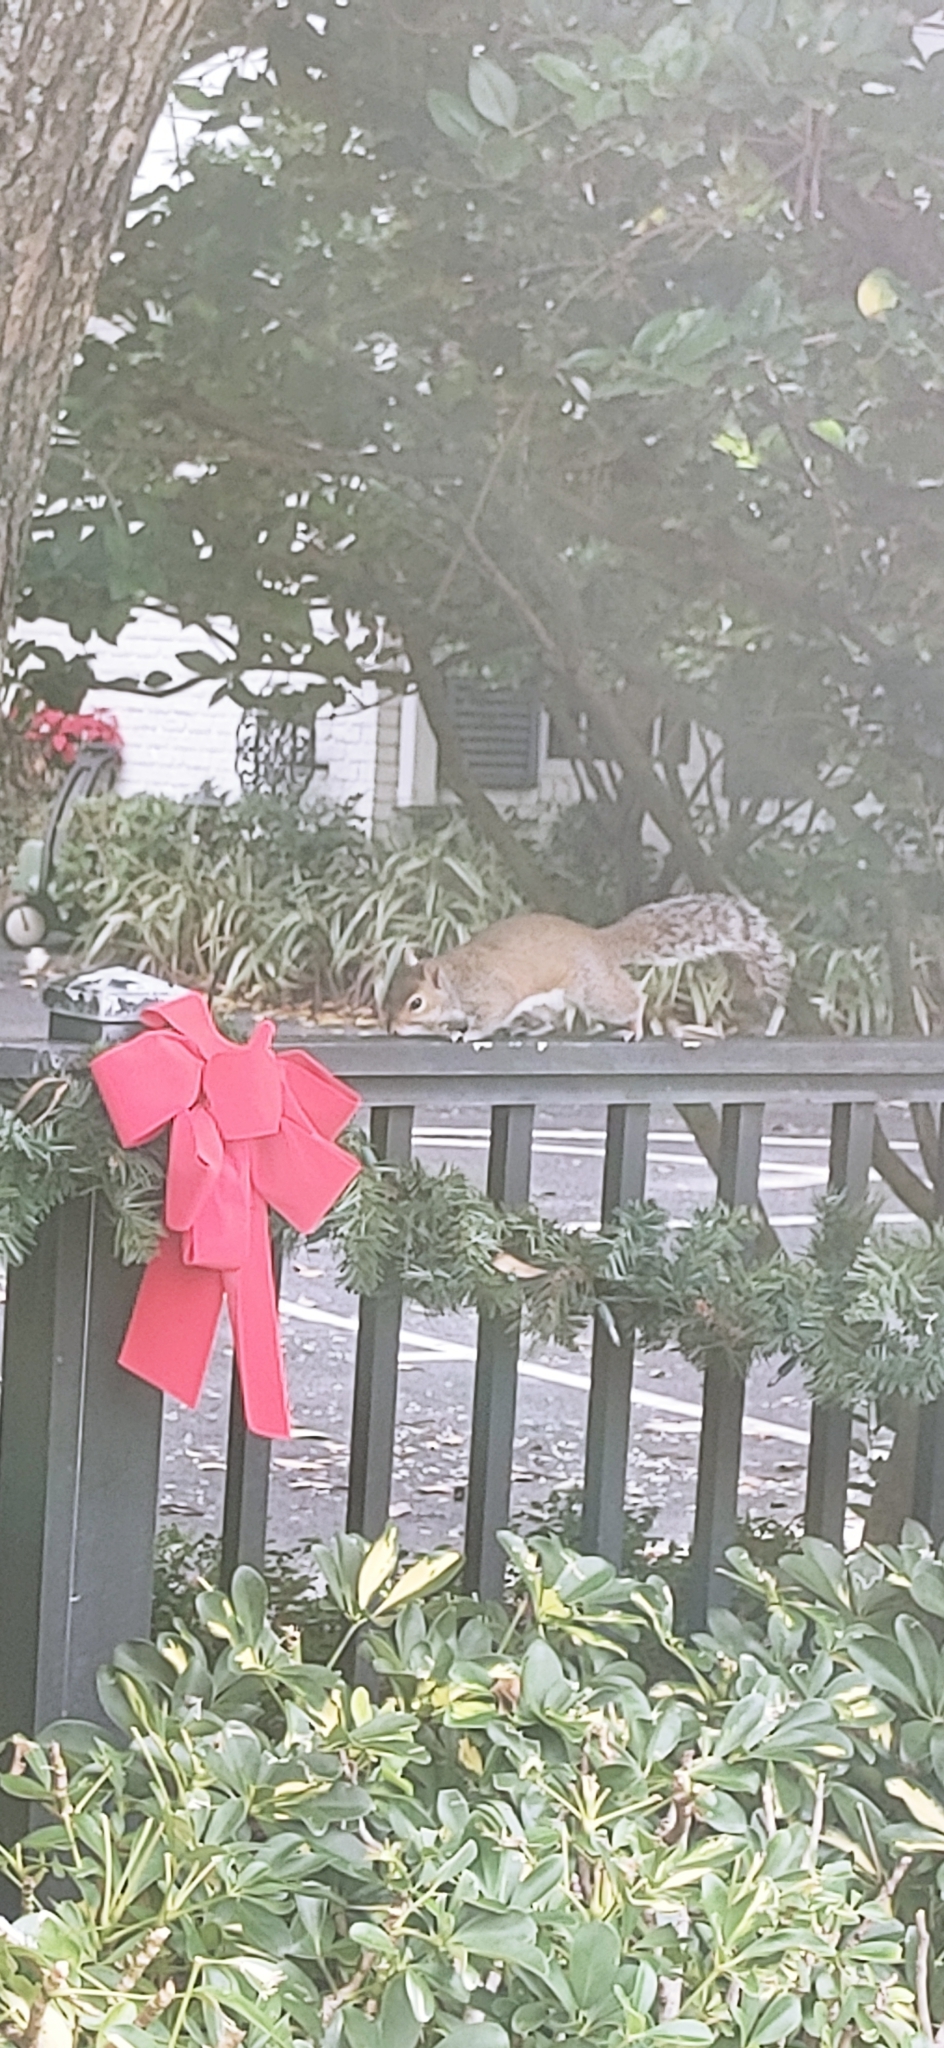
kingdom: Animalia
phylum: Chordata
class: Mammalia
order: Rodentia
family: Sciuridae
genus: Sciurus
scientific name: Sciurus carolinensis
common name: Eastern gray squirrel
